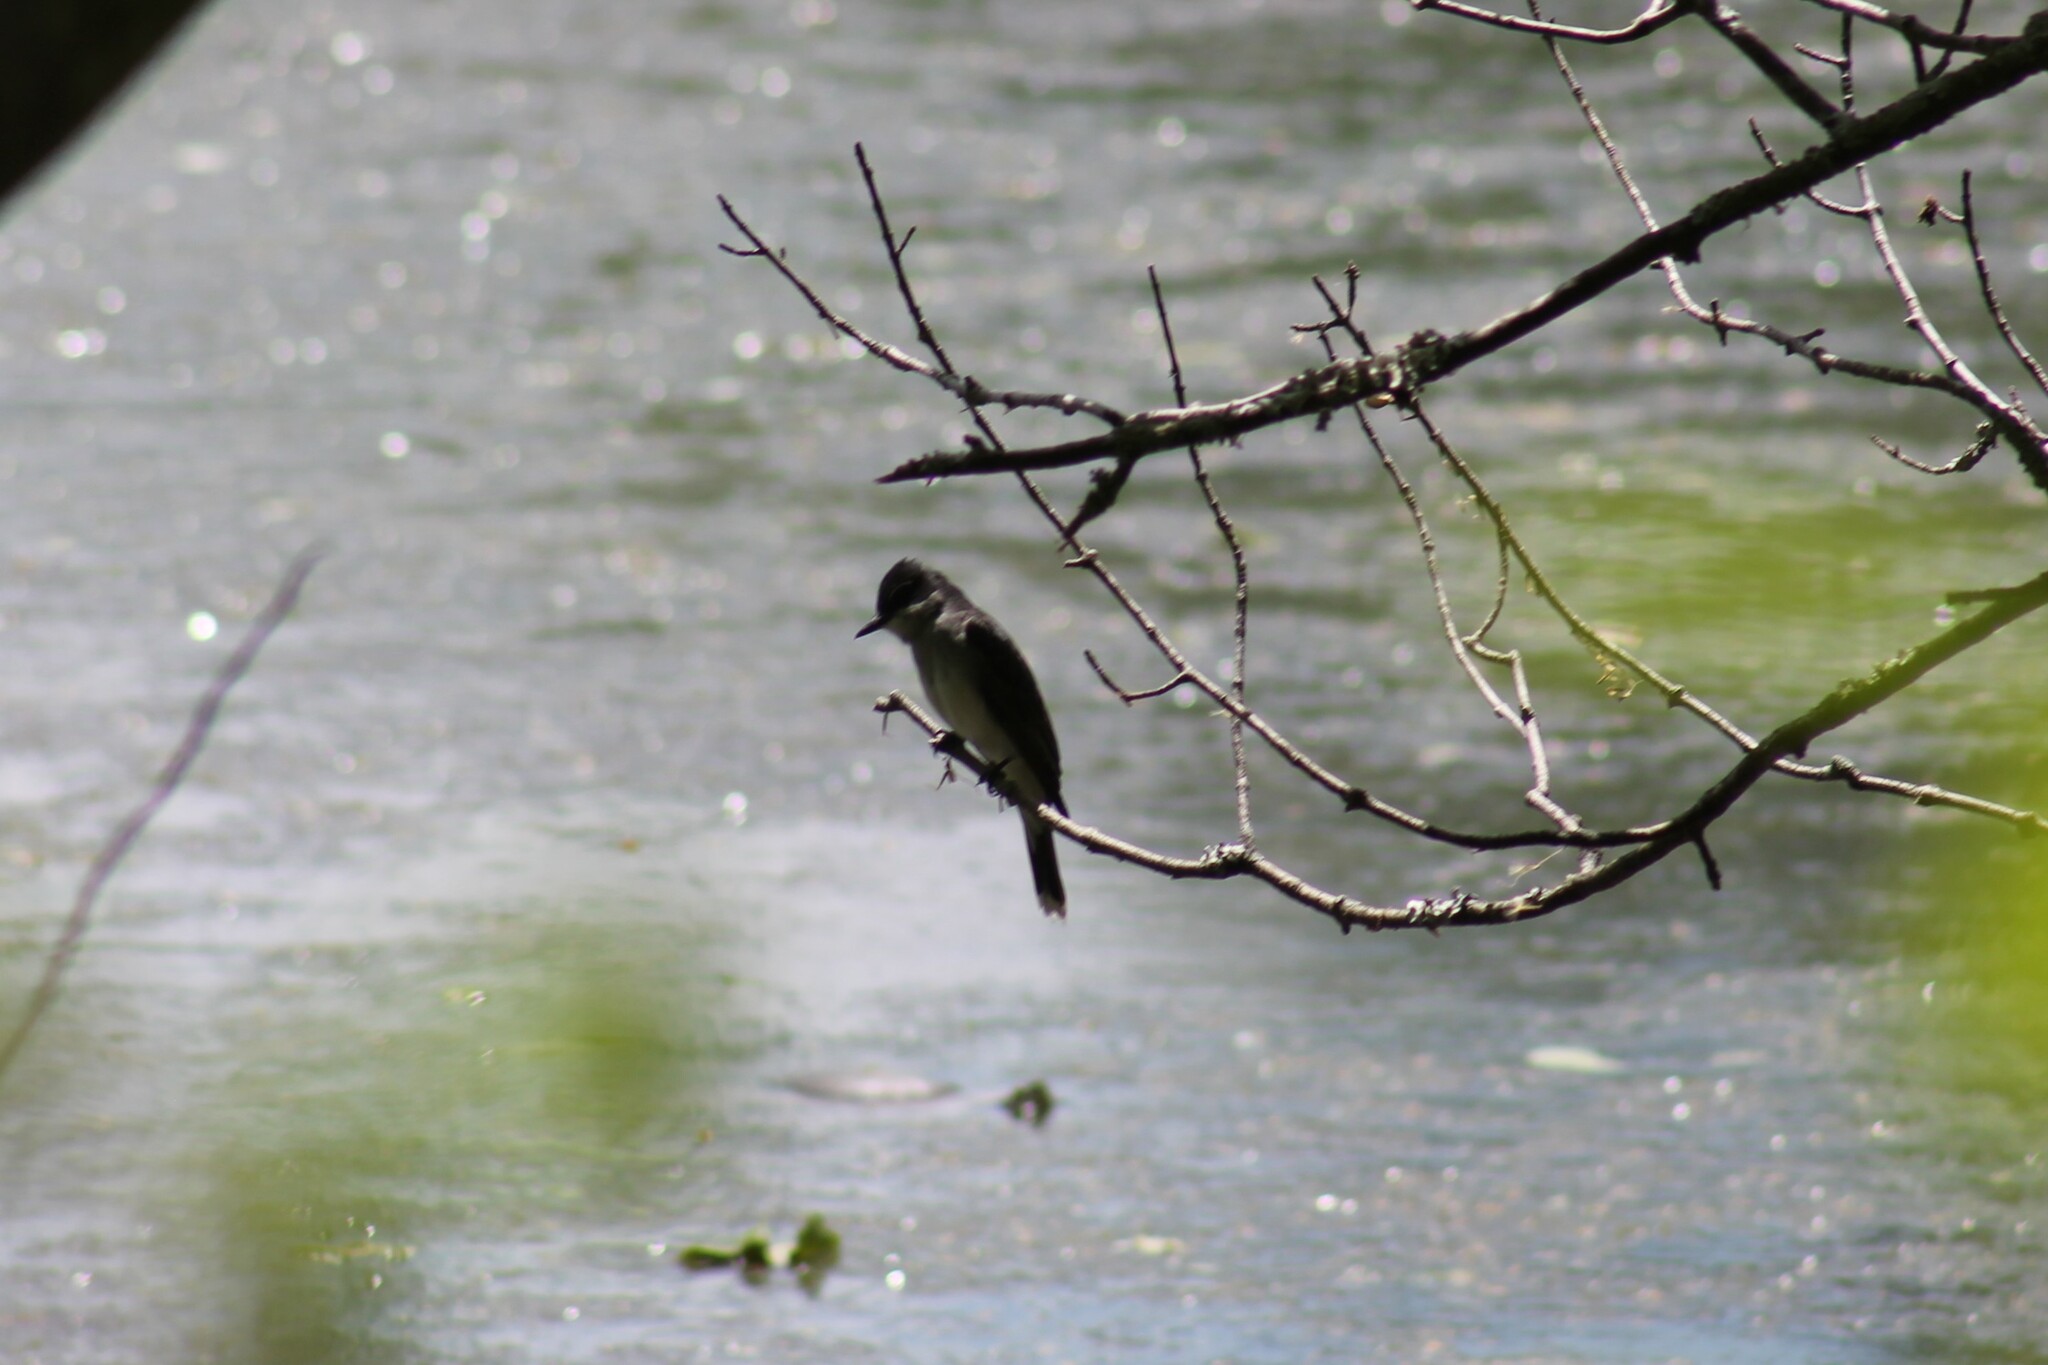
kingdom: Animalia
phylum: Chordata
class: Aves
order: Passeriformes
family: Tyrannidae
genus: Tyrannus
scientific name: Tyrannus tyrannus
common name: Eastern kingbird
